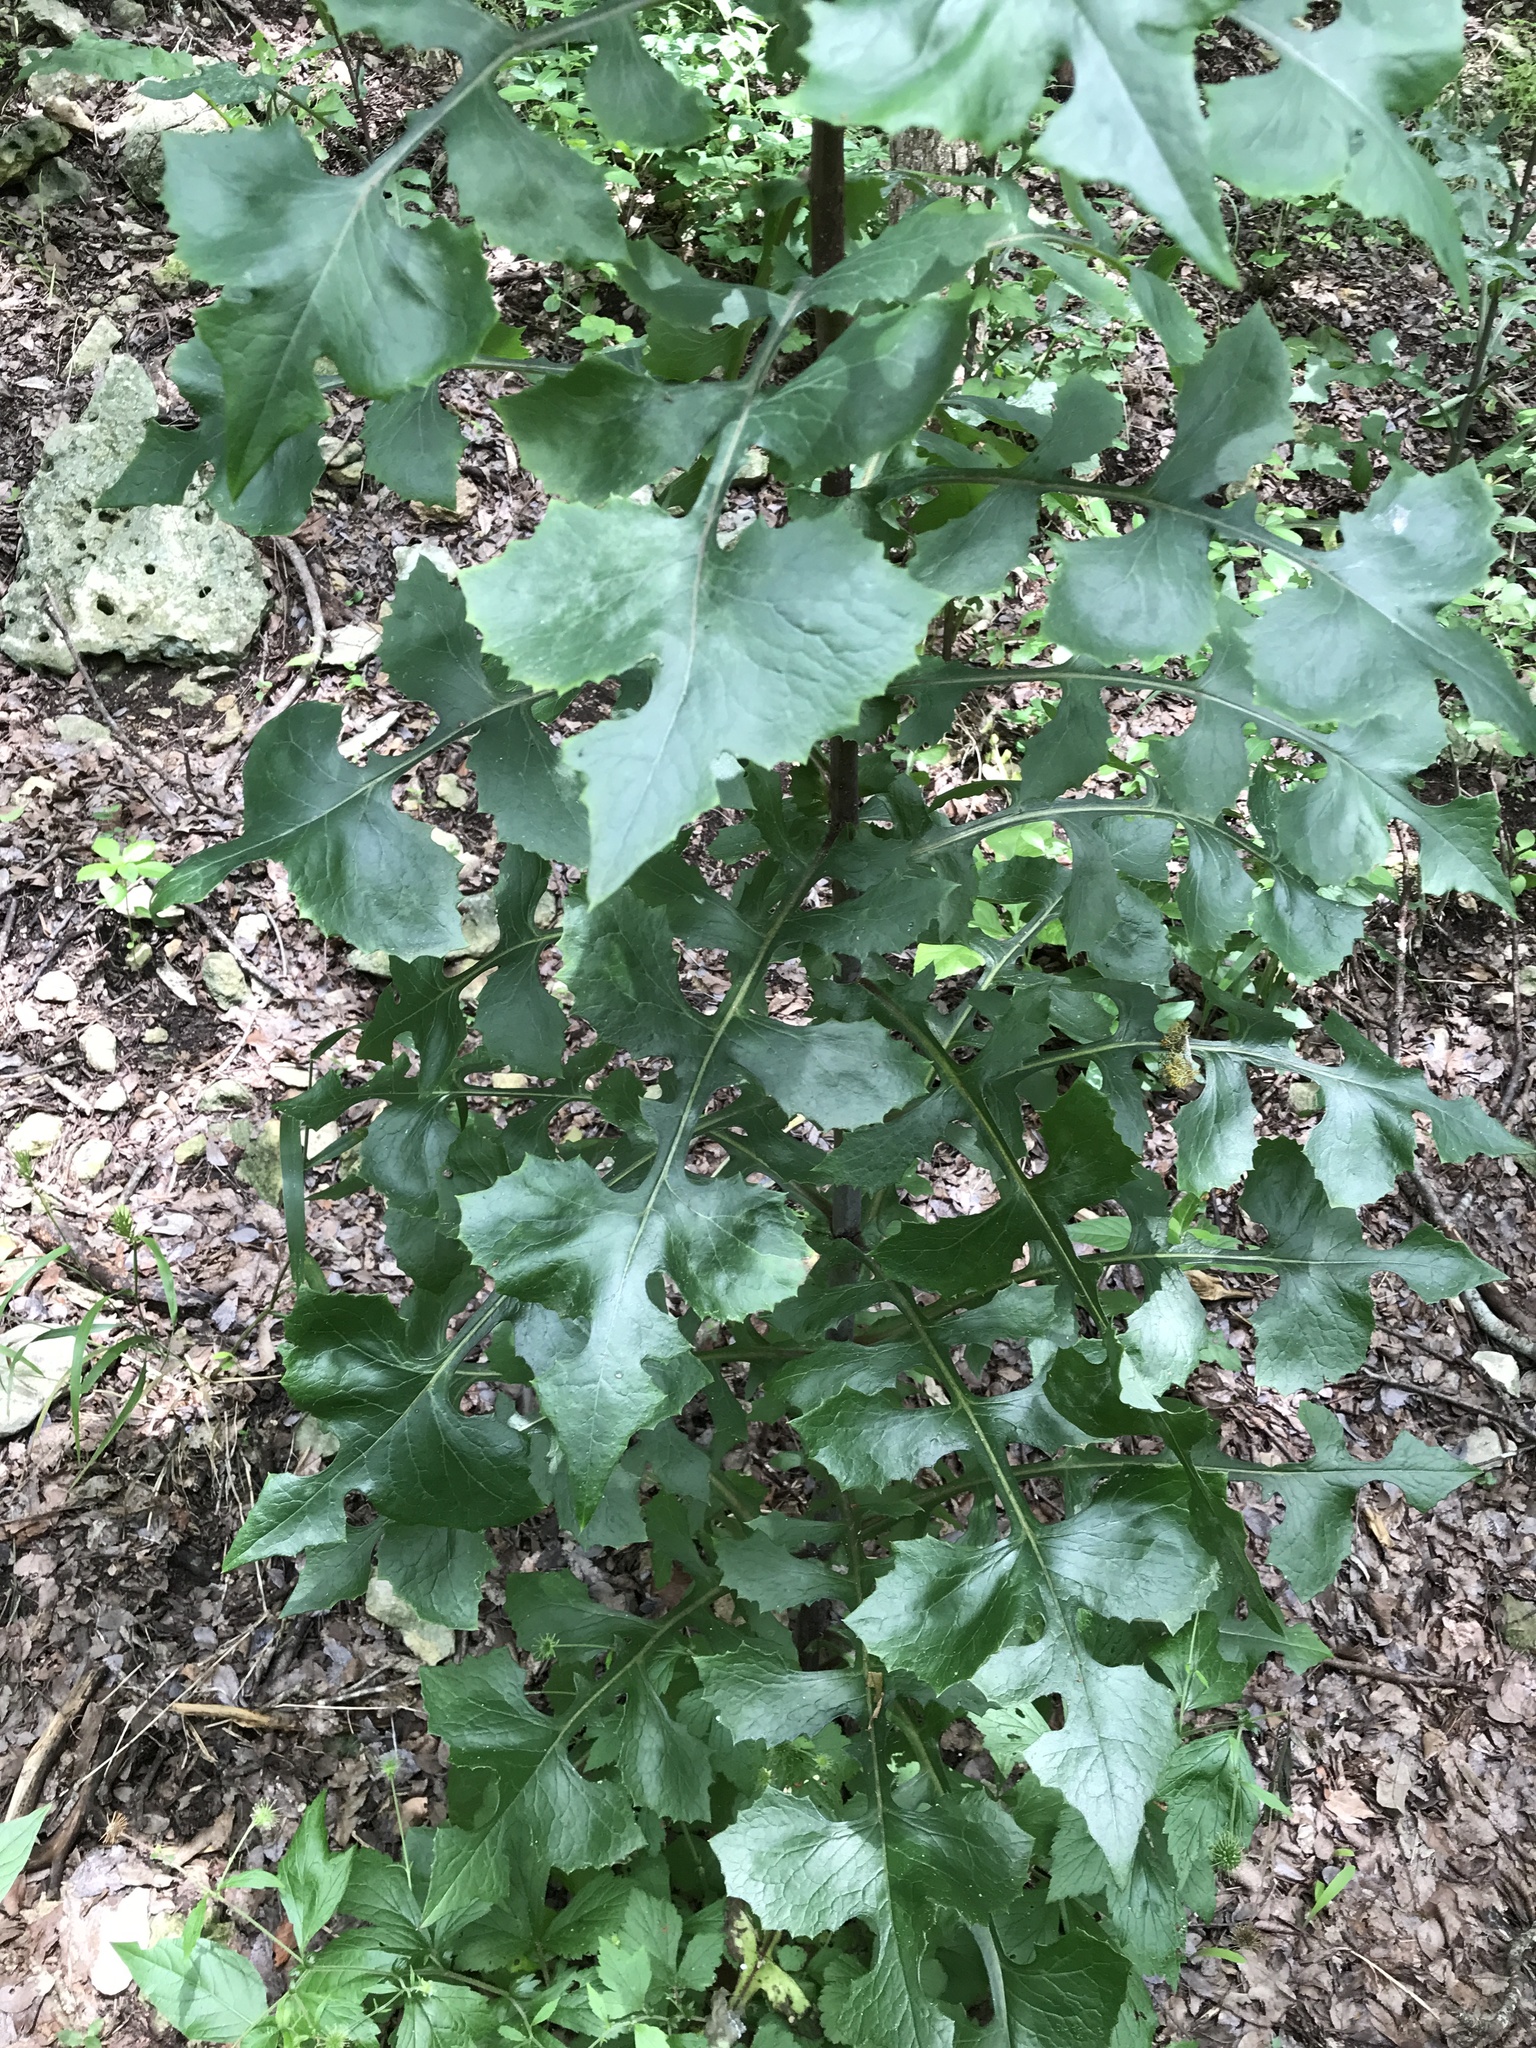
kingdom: Plantae
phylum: Tracheophyta
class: Magnoliopsida
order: Asterales
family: Asteraceae
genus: Lactuca
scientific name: Lactuca floridana
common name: Woodland lettuce
